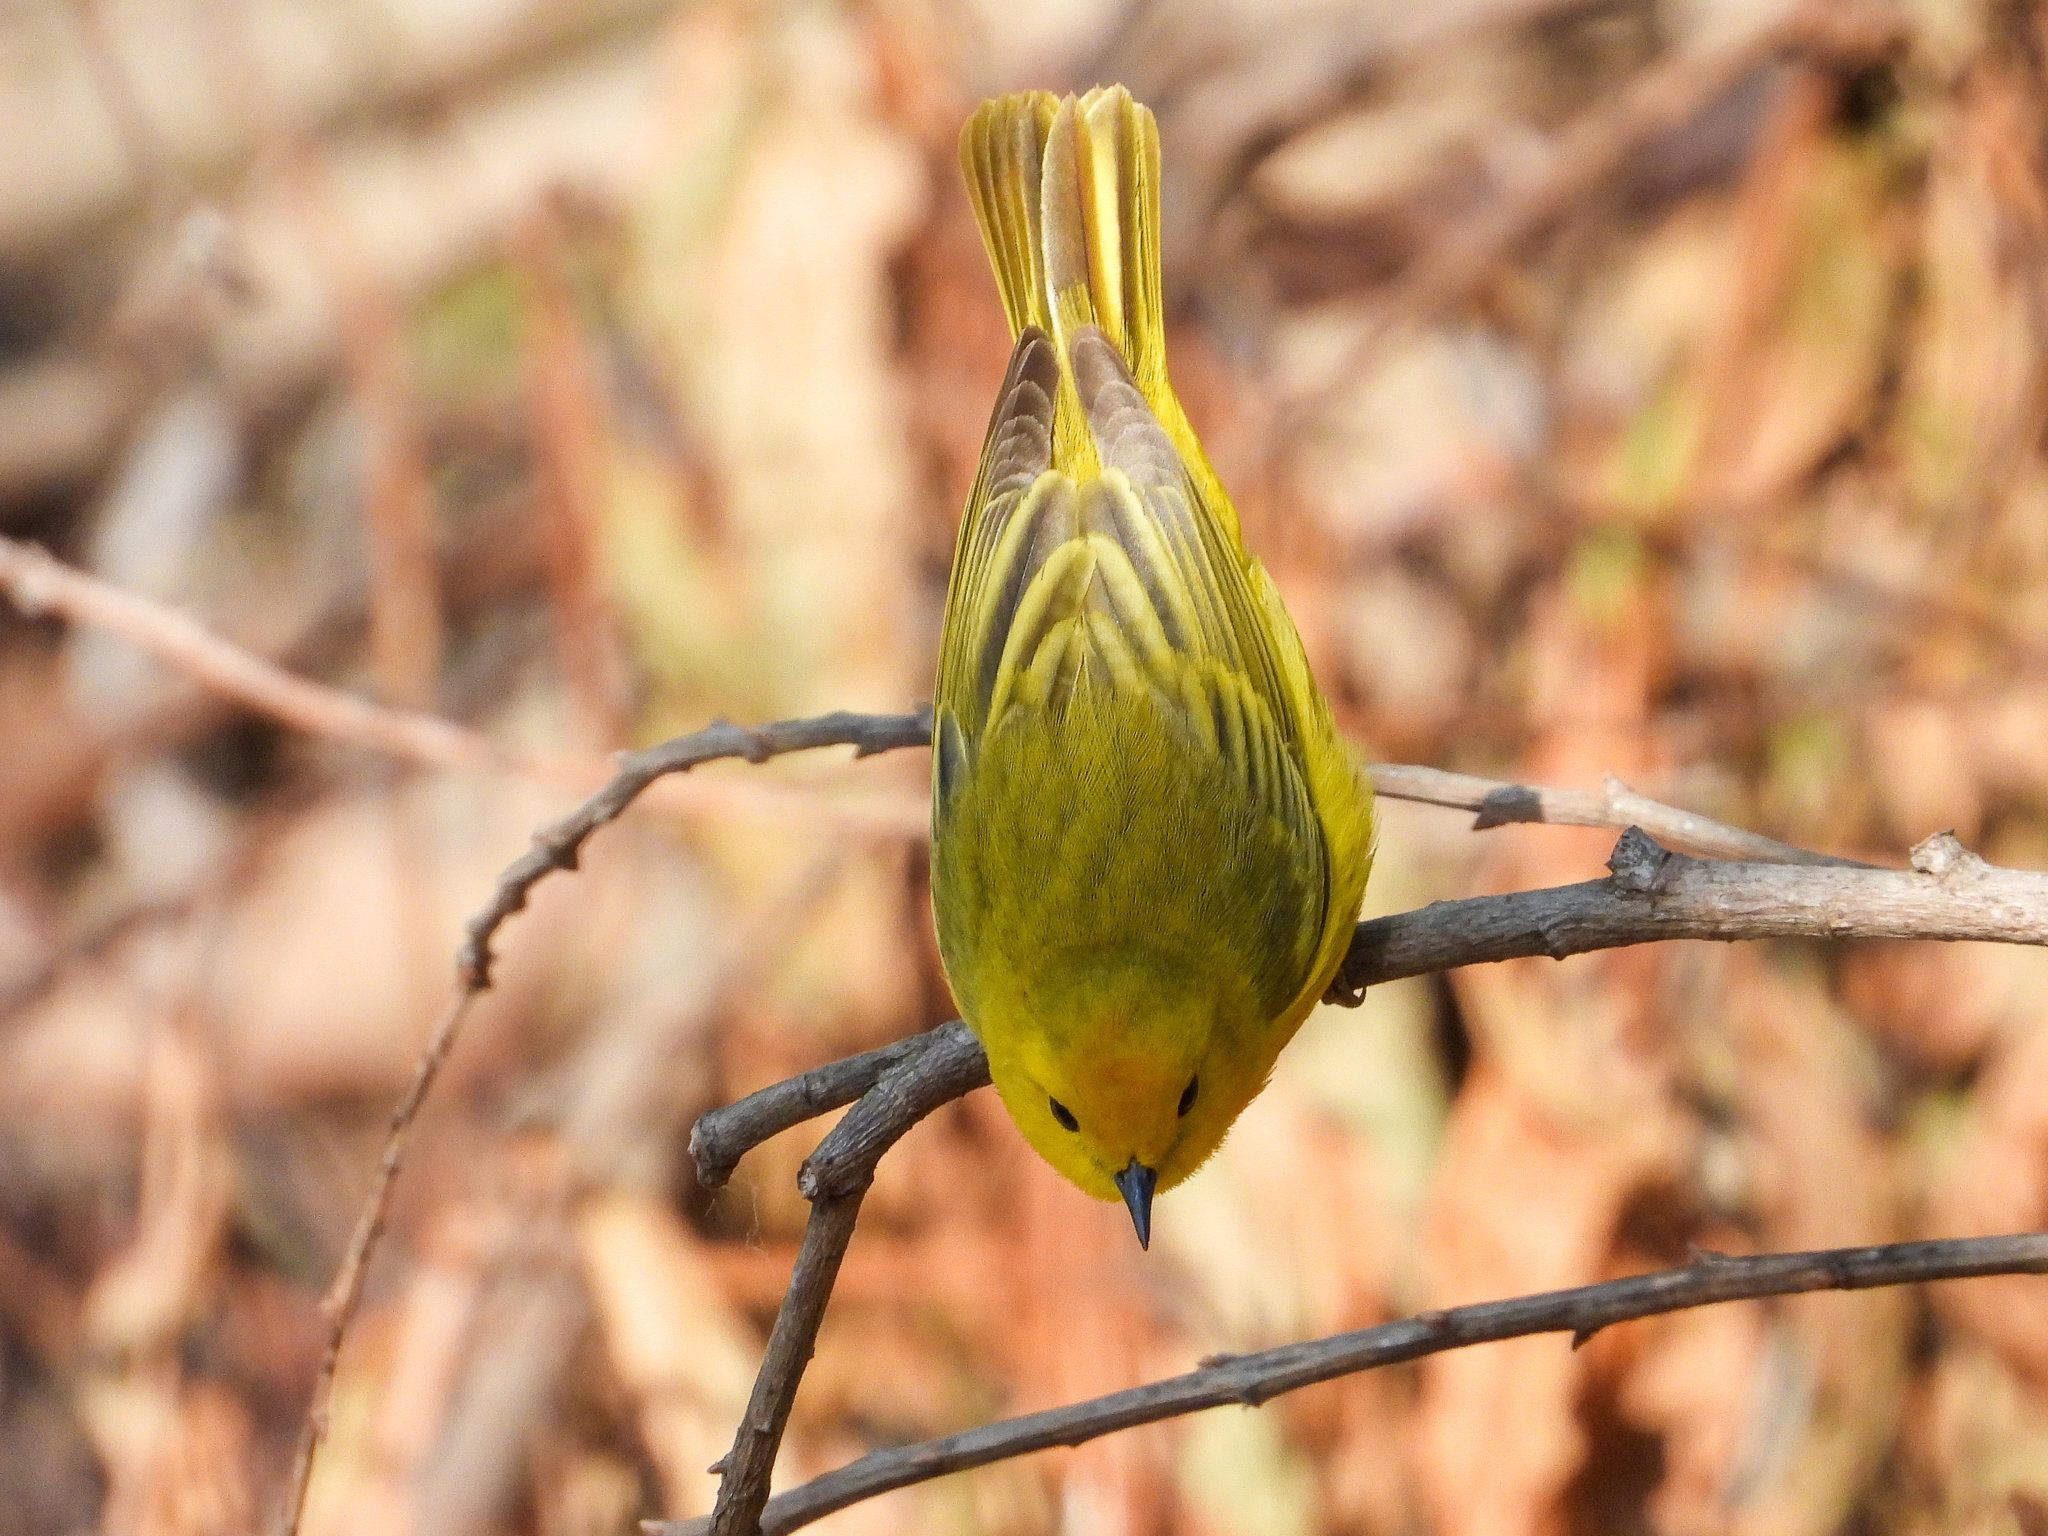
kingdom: Animalia
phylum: Chordata
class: Aves
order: Passeriformes
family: Parulidae
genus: Setophaga
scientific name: Setophaga petechia
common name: Yellow warbler
